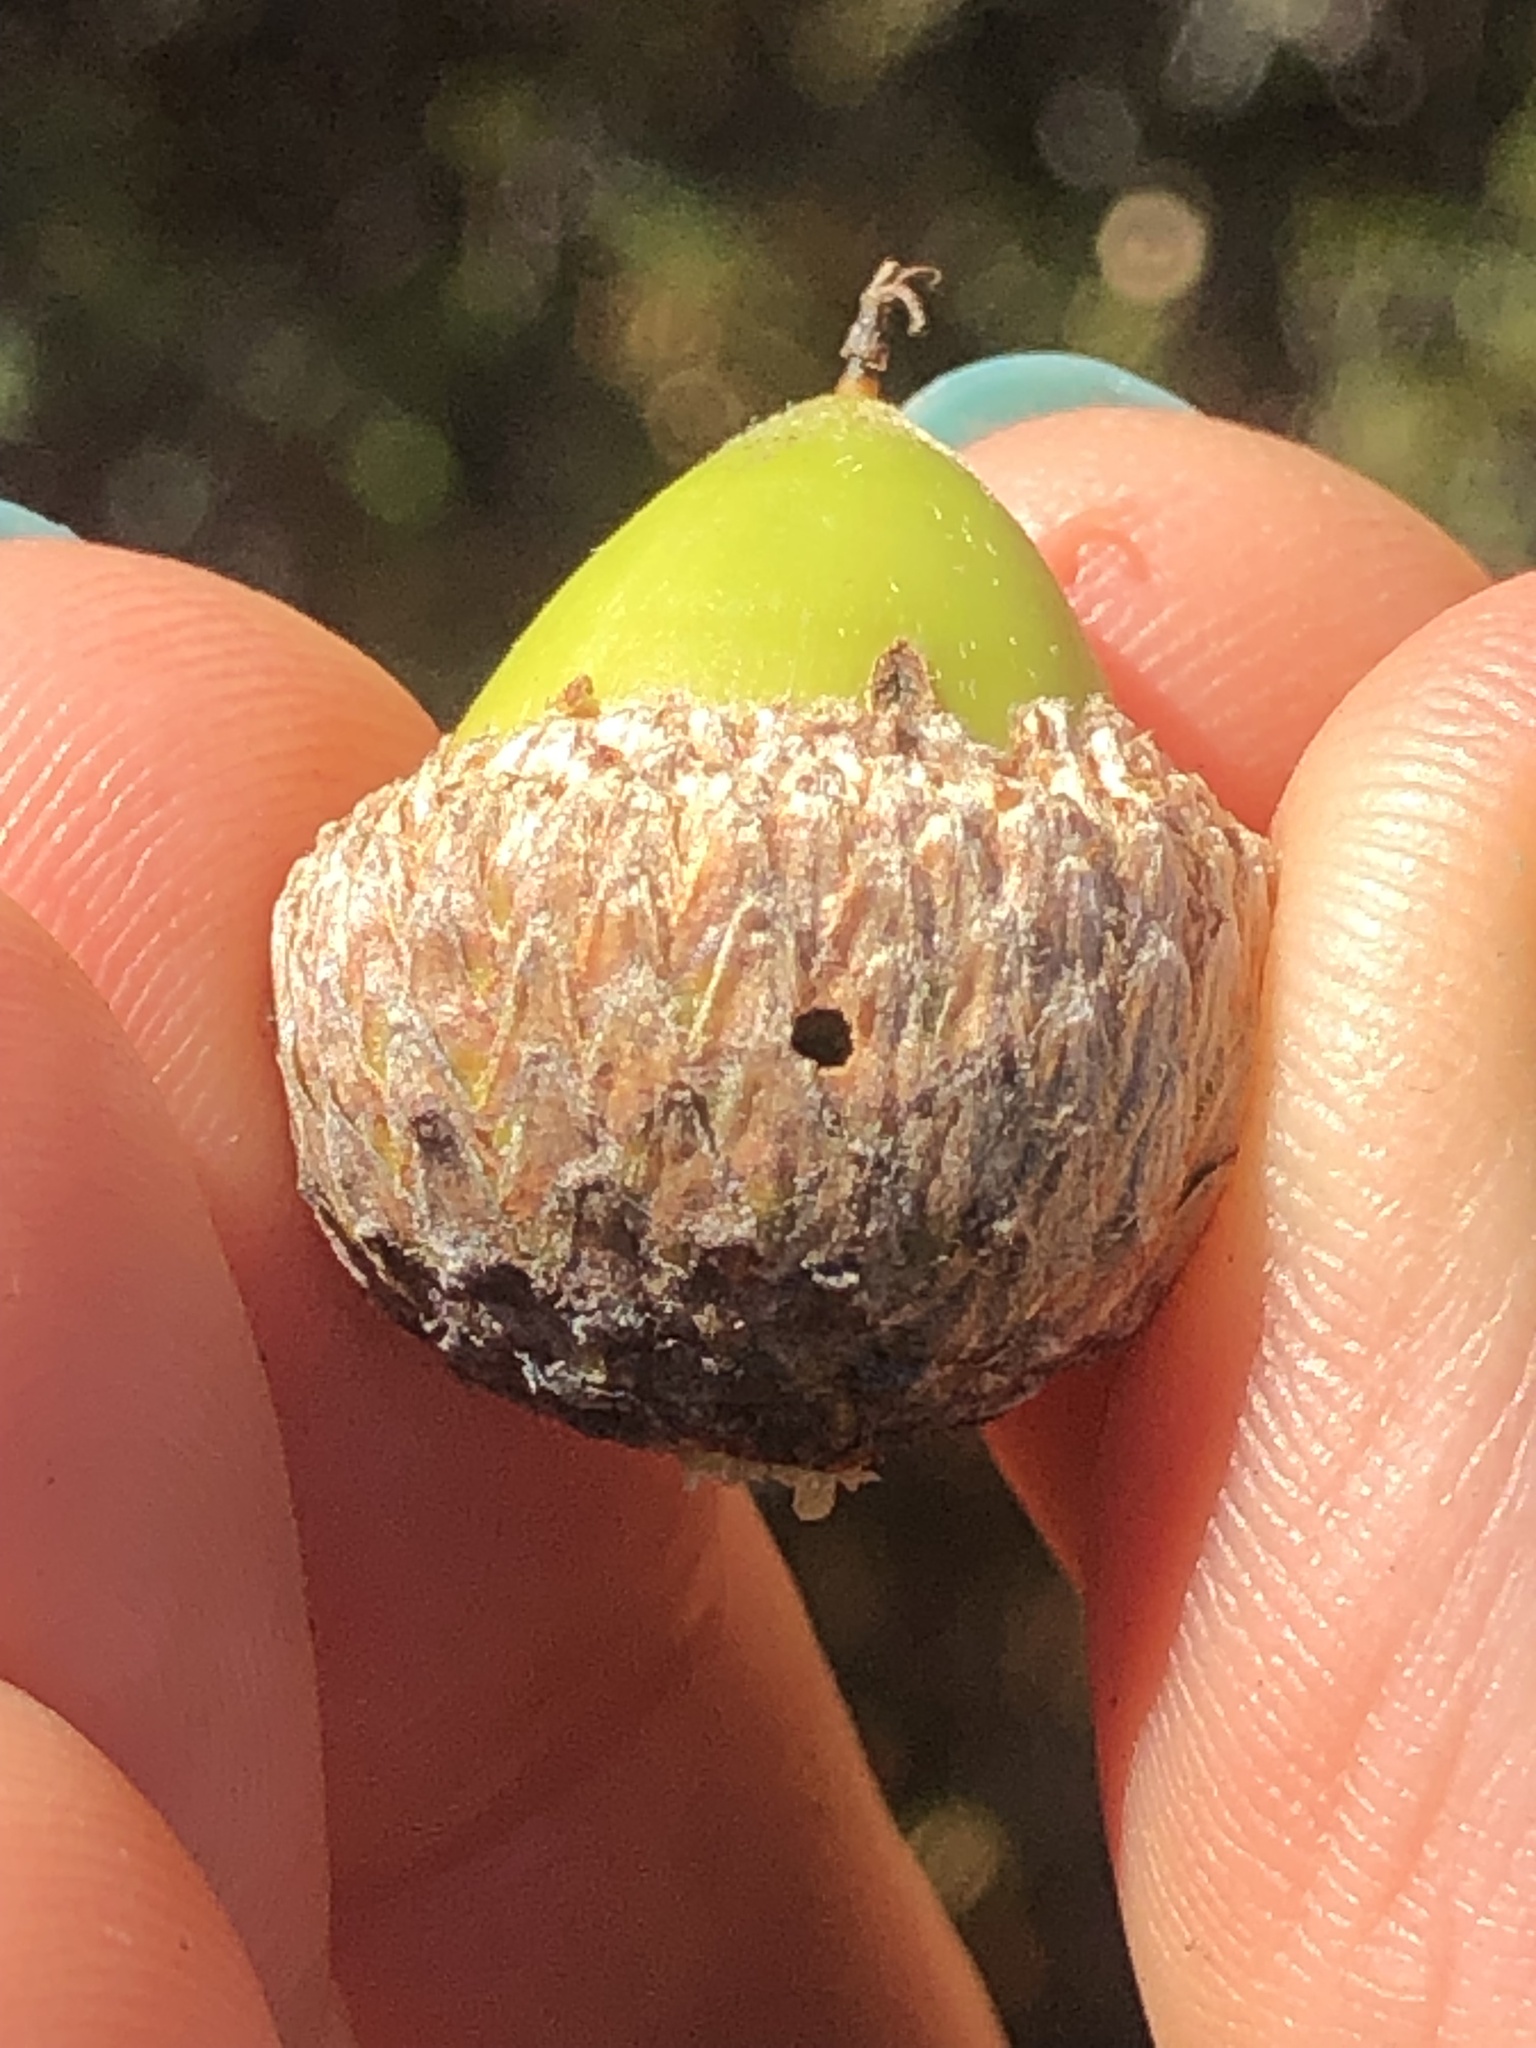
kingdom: Animalia
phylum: Arthropoda
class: Insecta
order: Hymenoptera
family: Cynipidae
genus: Callirhytis
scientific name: Callirhytis
